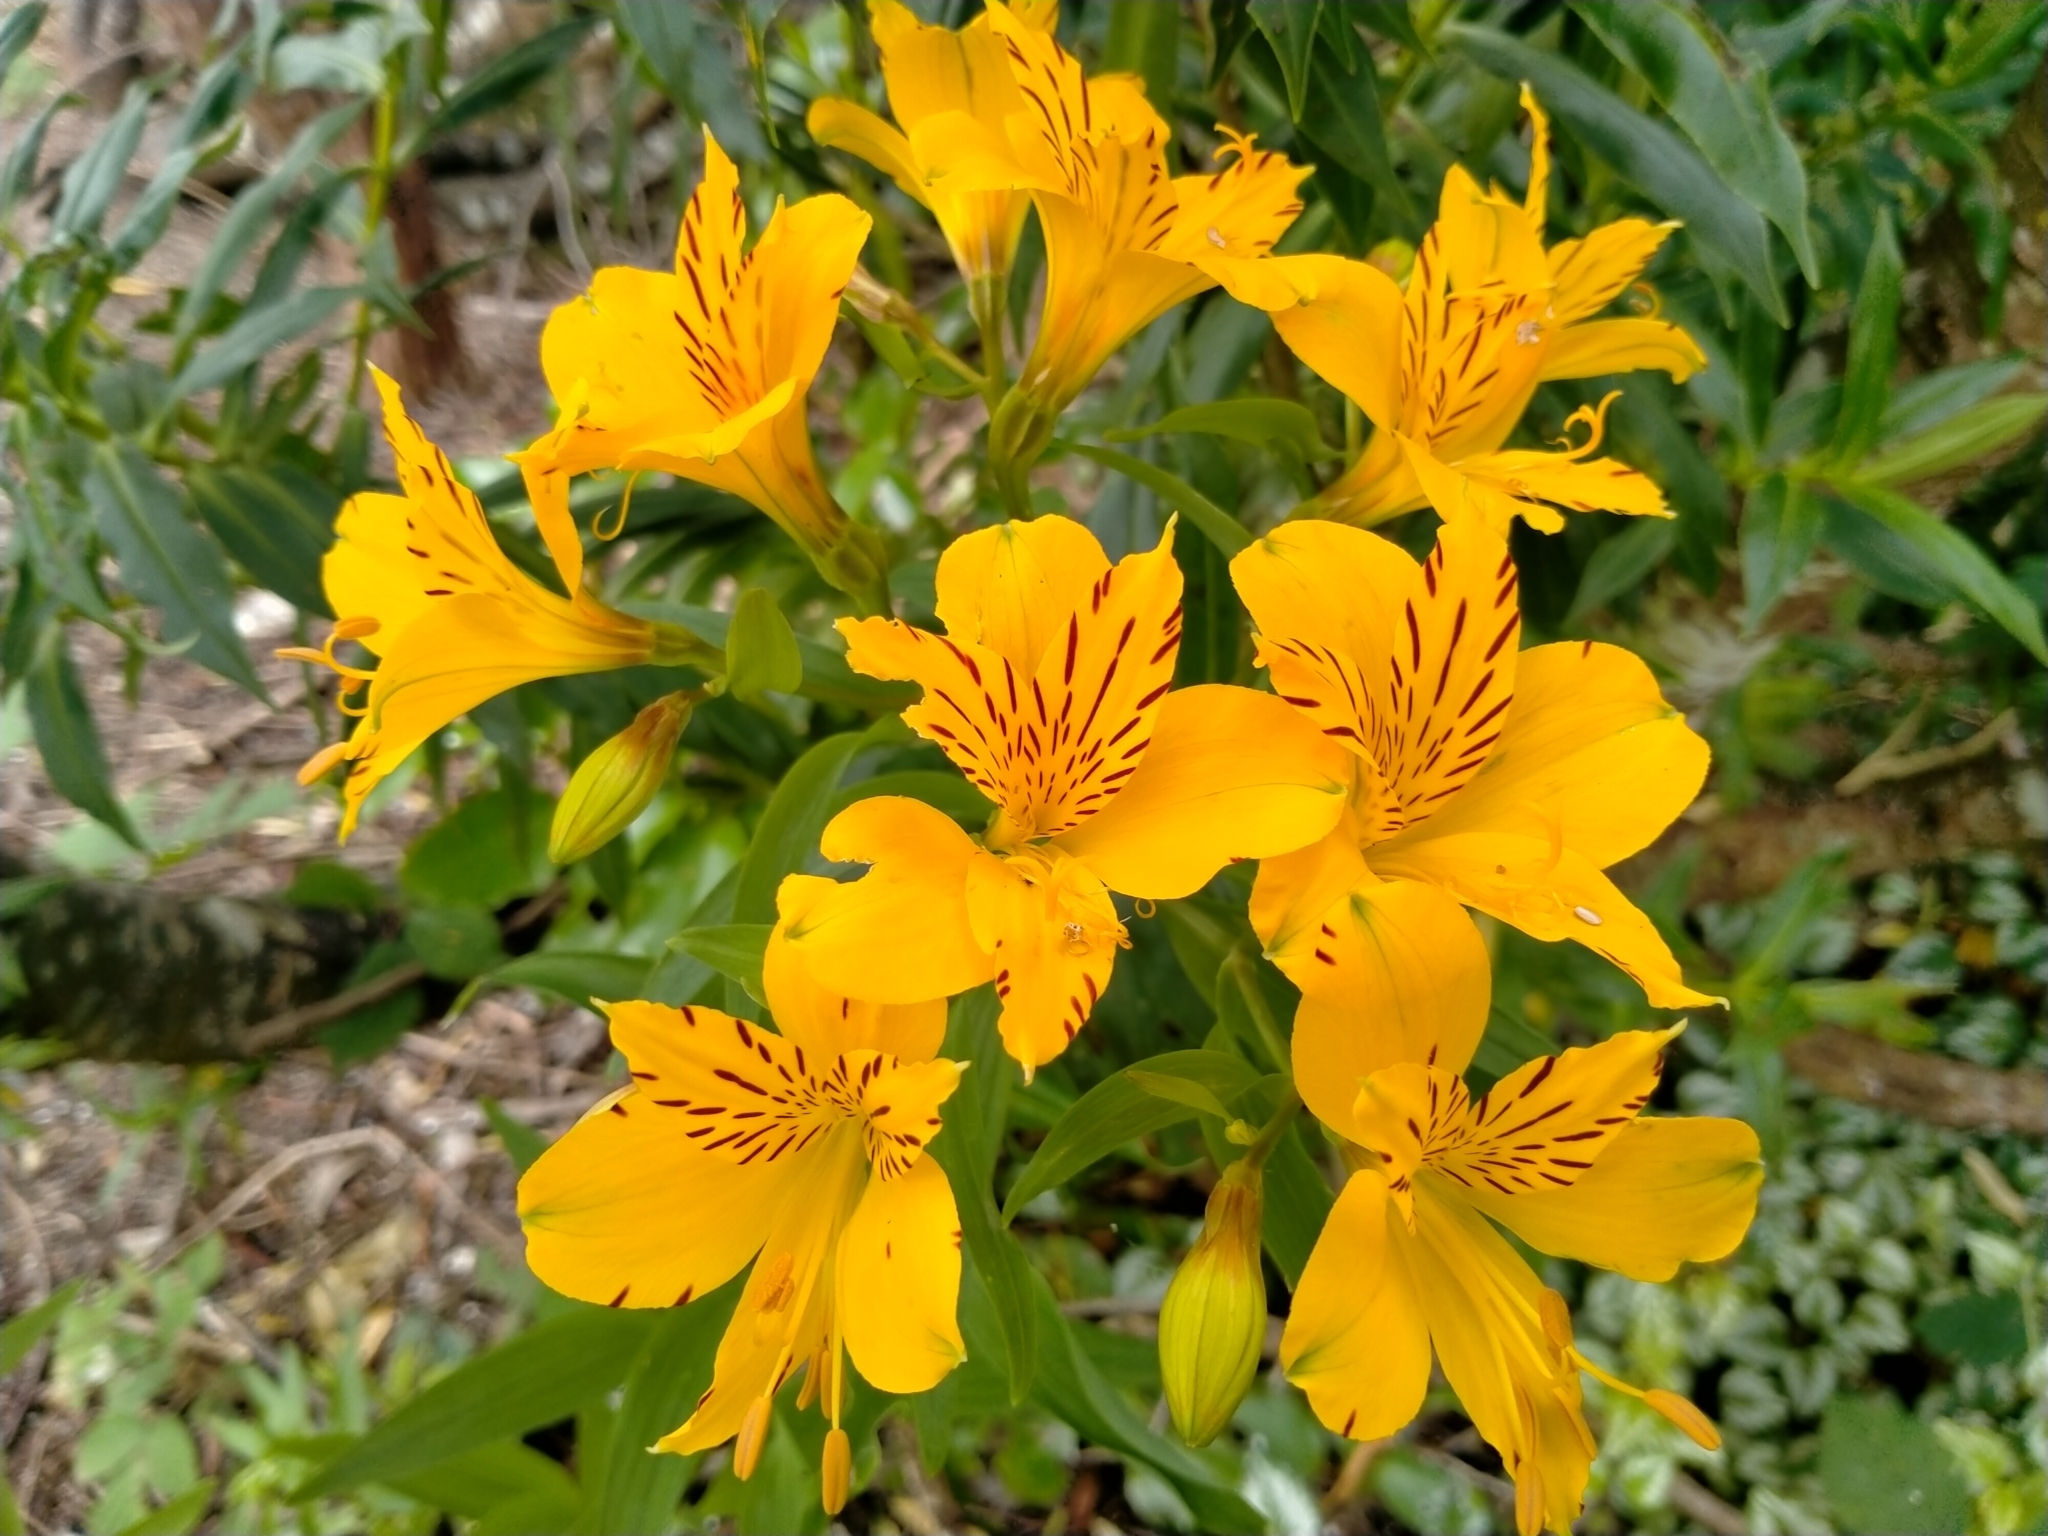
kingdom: Plantae
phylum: Tracheophyta
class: Liliopsida
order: Liliales
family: Alstroemeriaceae
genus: Alstroemeria
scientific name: Alstroemeria aurea
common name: Peruvian lily
